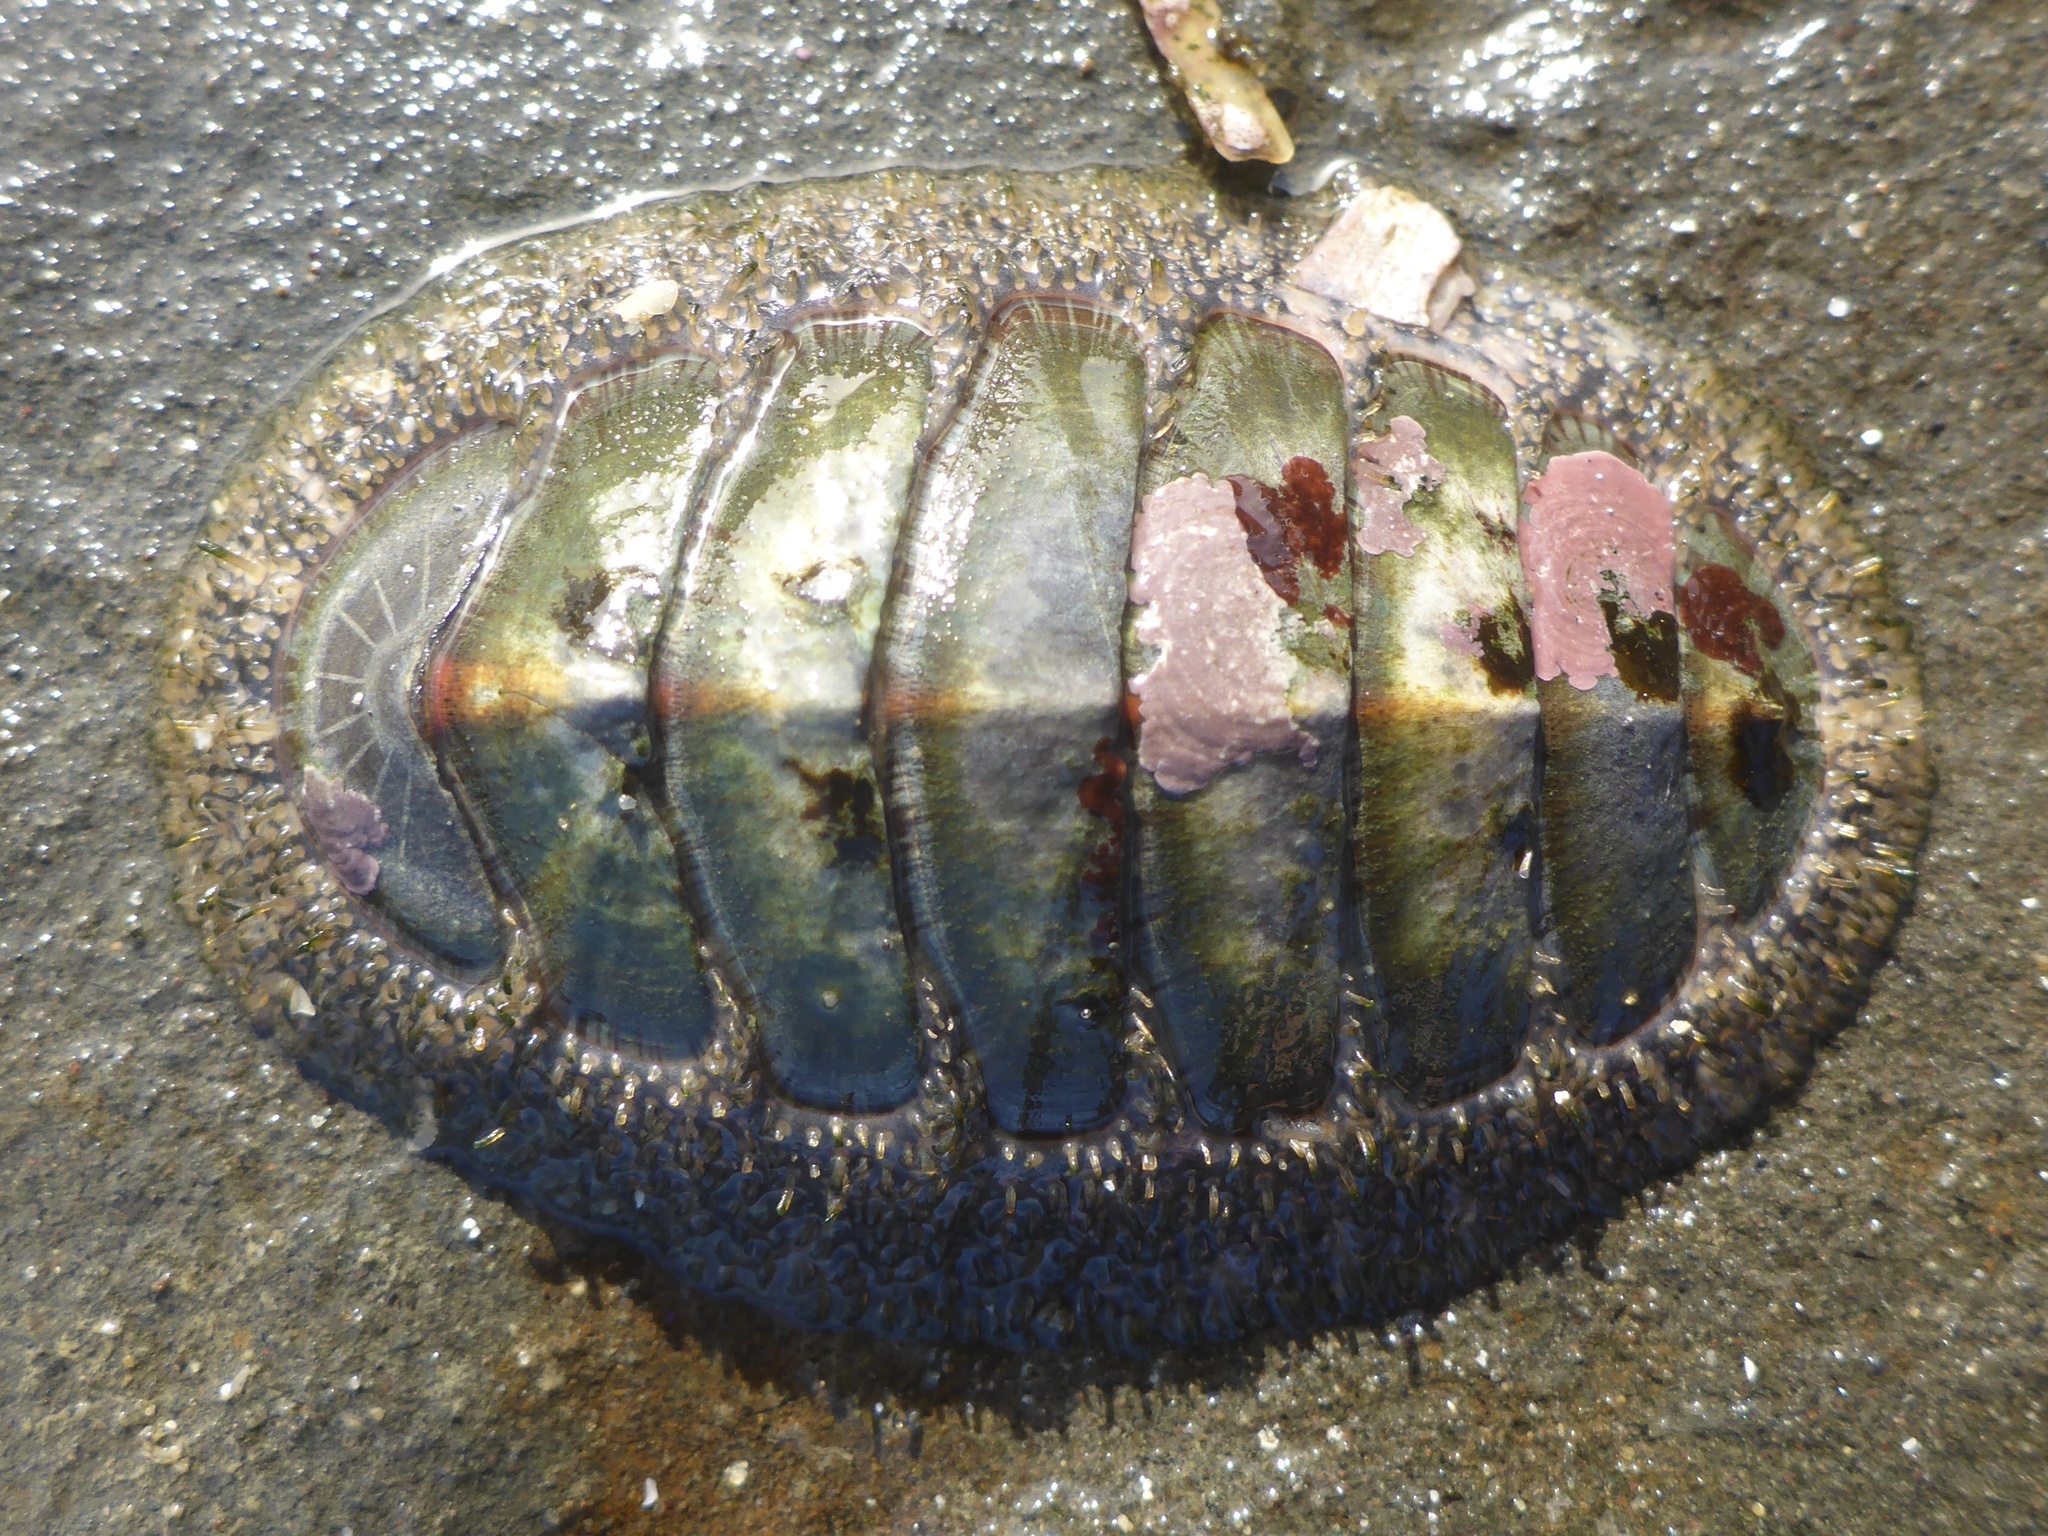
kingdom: Animalia
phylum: Mollusca
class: Polyplacophora
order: Chitonida
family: Mopaliidae
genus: Mopalia
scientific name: Mopalia lignosa
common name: Woody chiton
